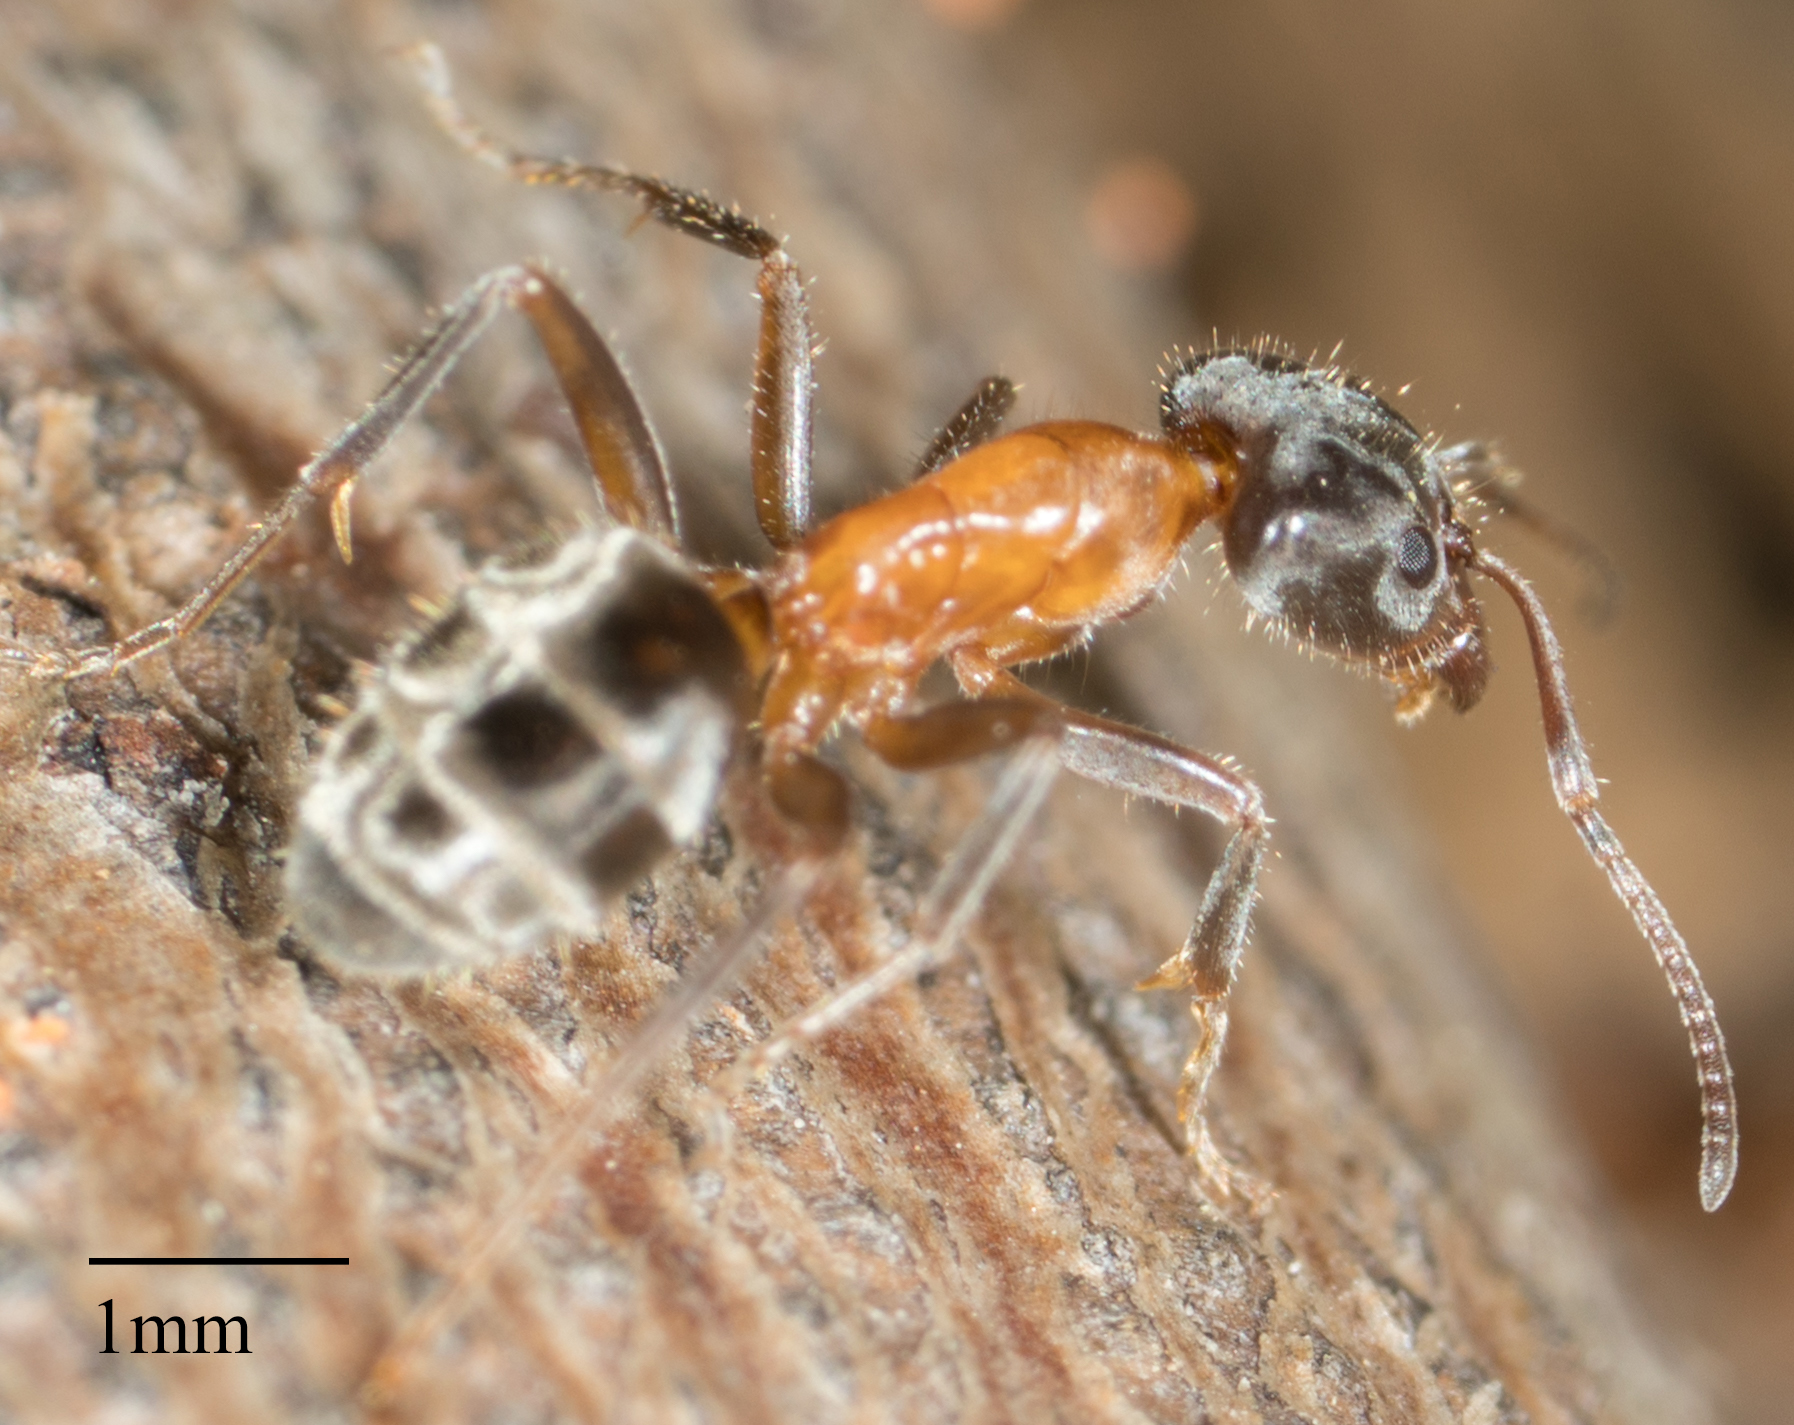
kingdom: Animalia
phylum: Arthropoda
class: Insecta
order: Hymenoptera
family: Formicidae
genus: Liometopum
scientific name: Liometopum occidentale
